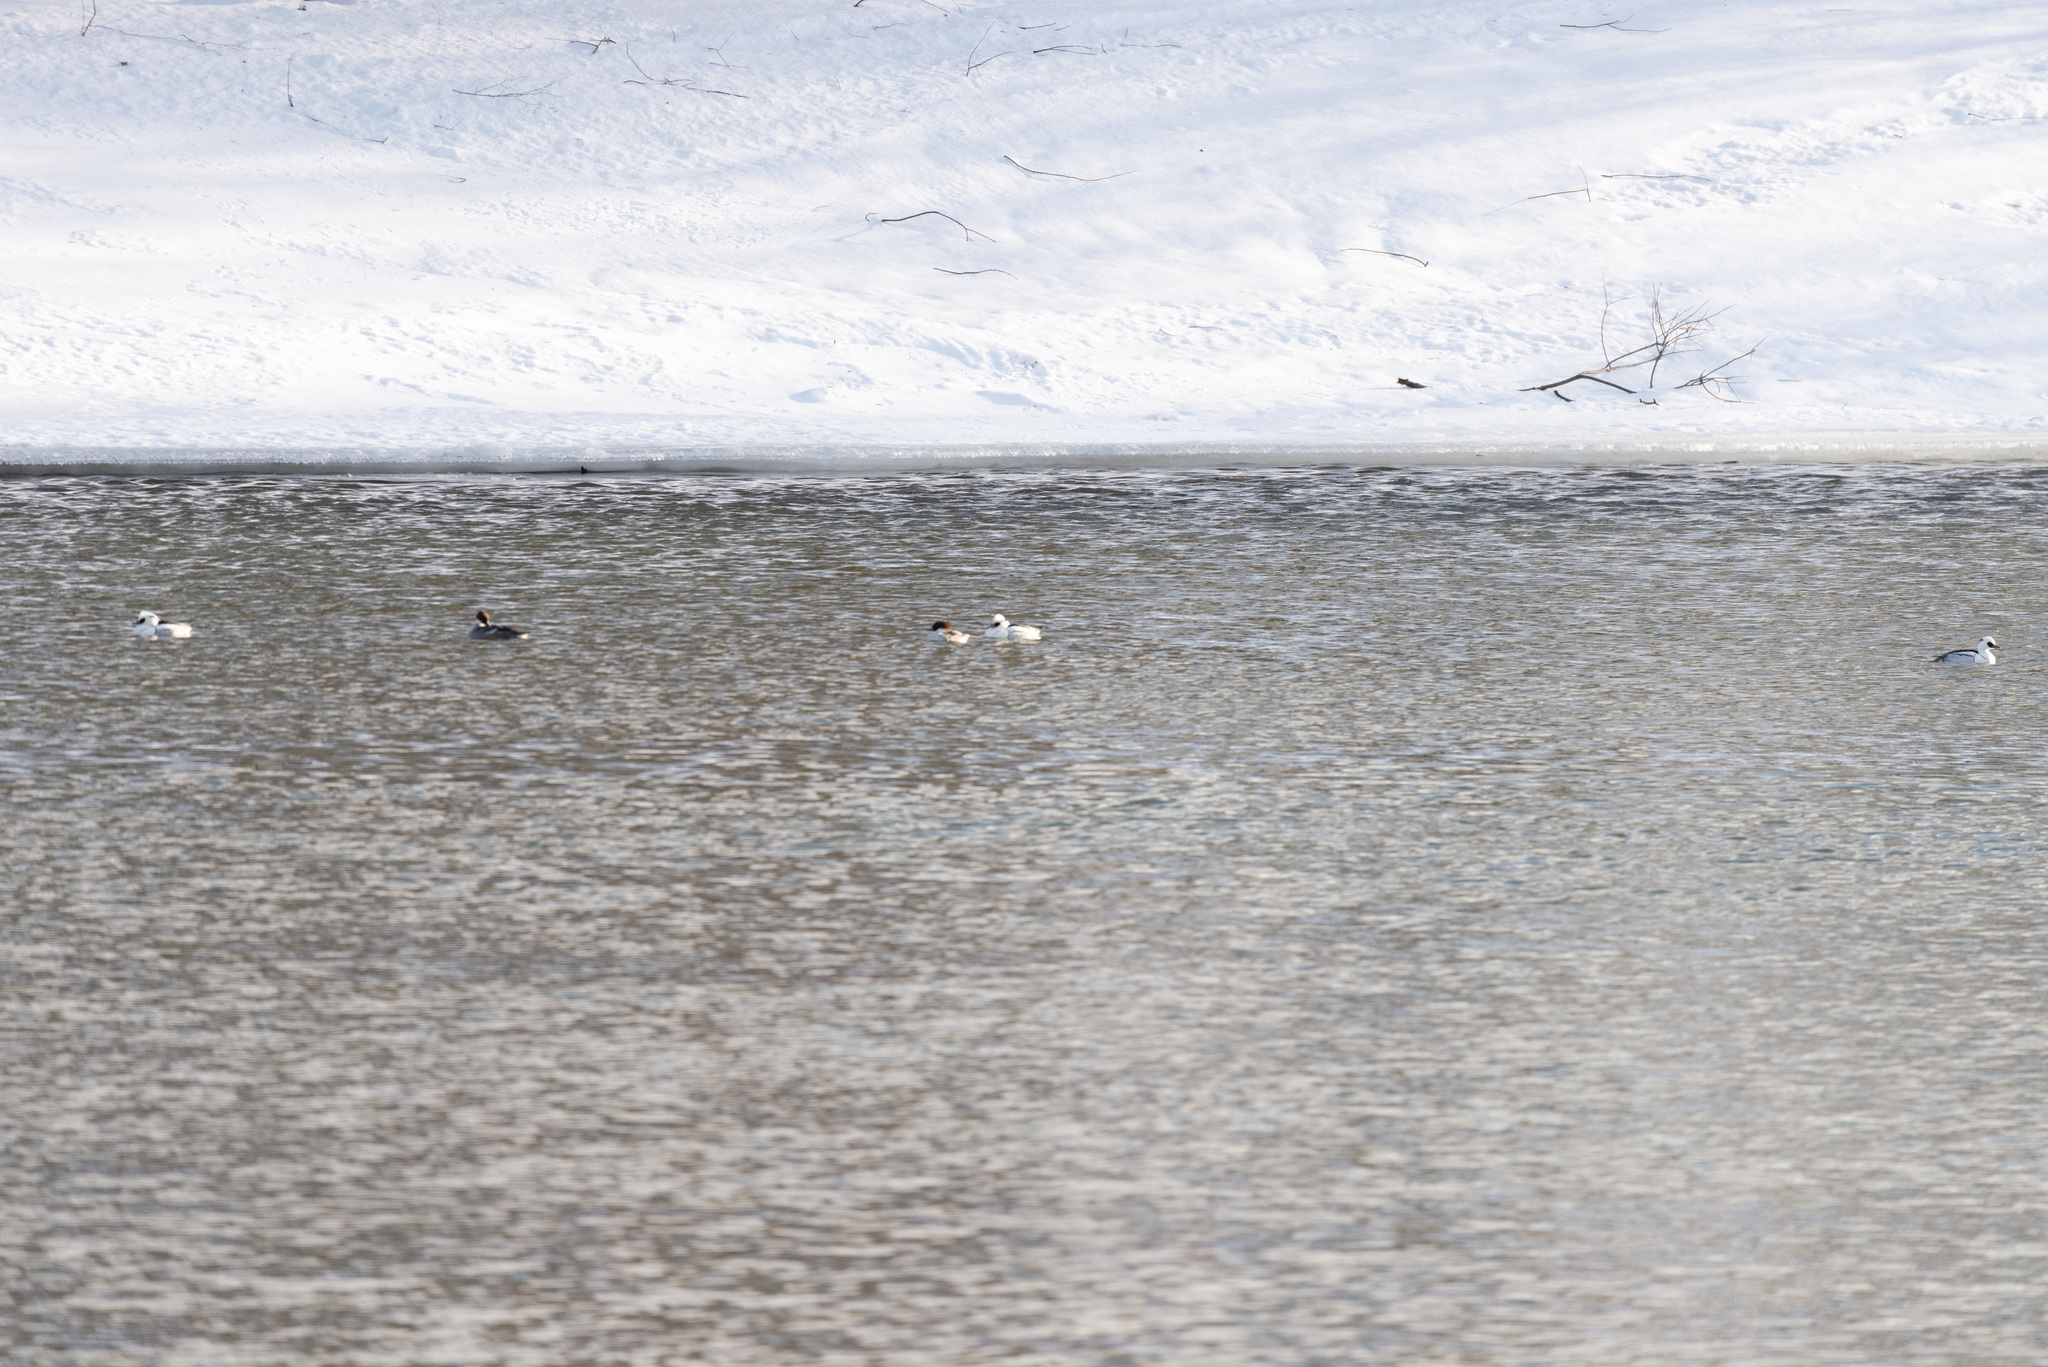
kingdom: Animalia
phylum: Chordata
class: Aves
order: Anseriformes
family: Anatidae
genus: Mergellus
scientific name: Mergellus albellus
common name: Smew
